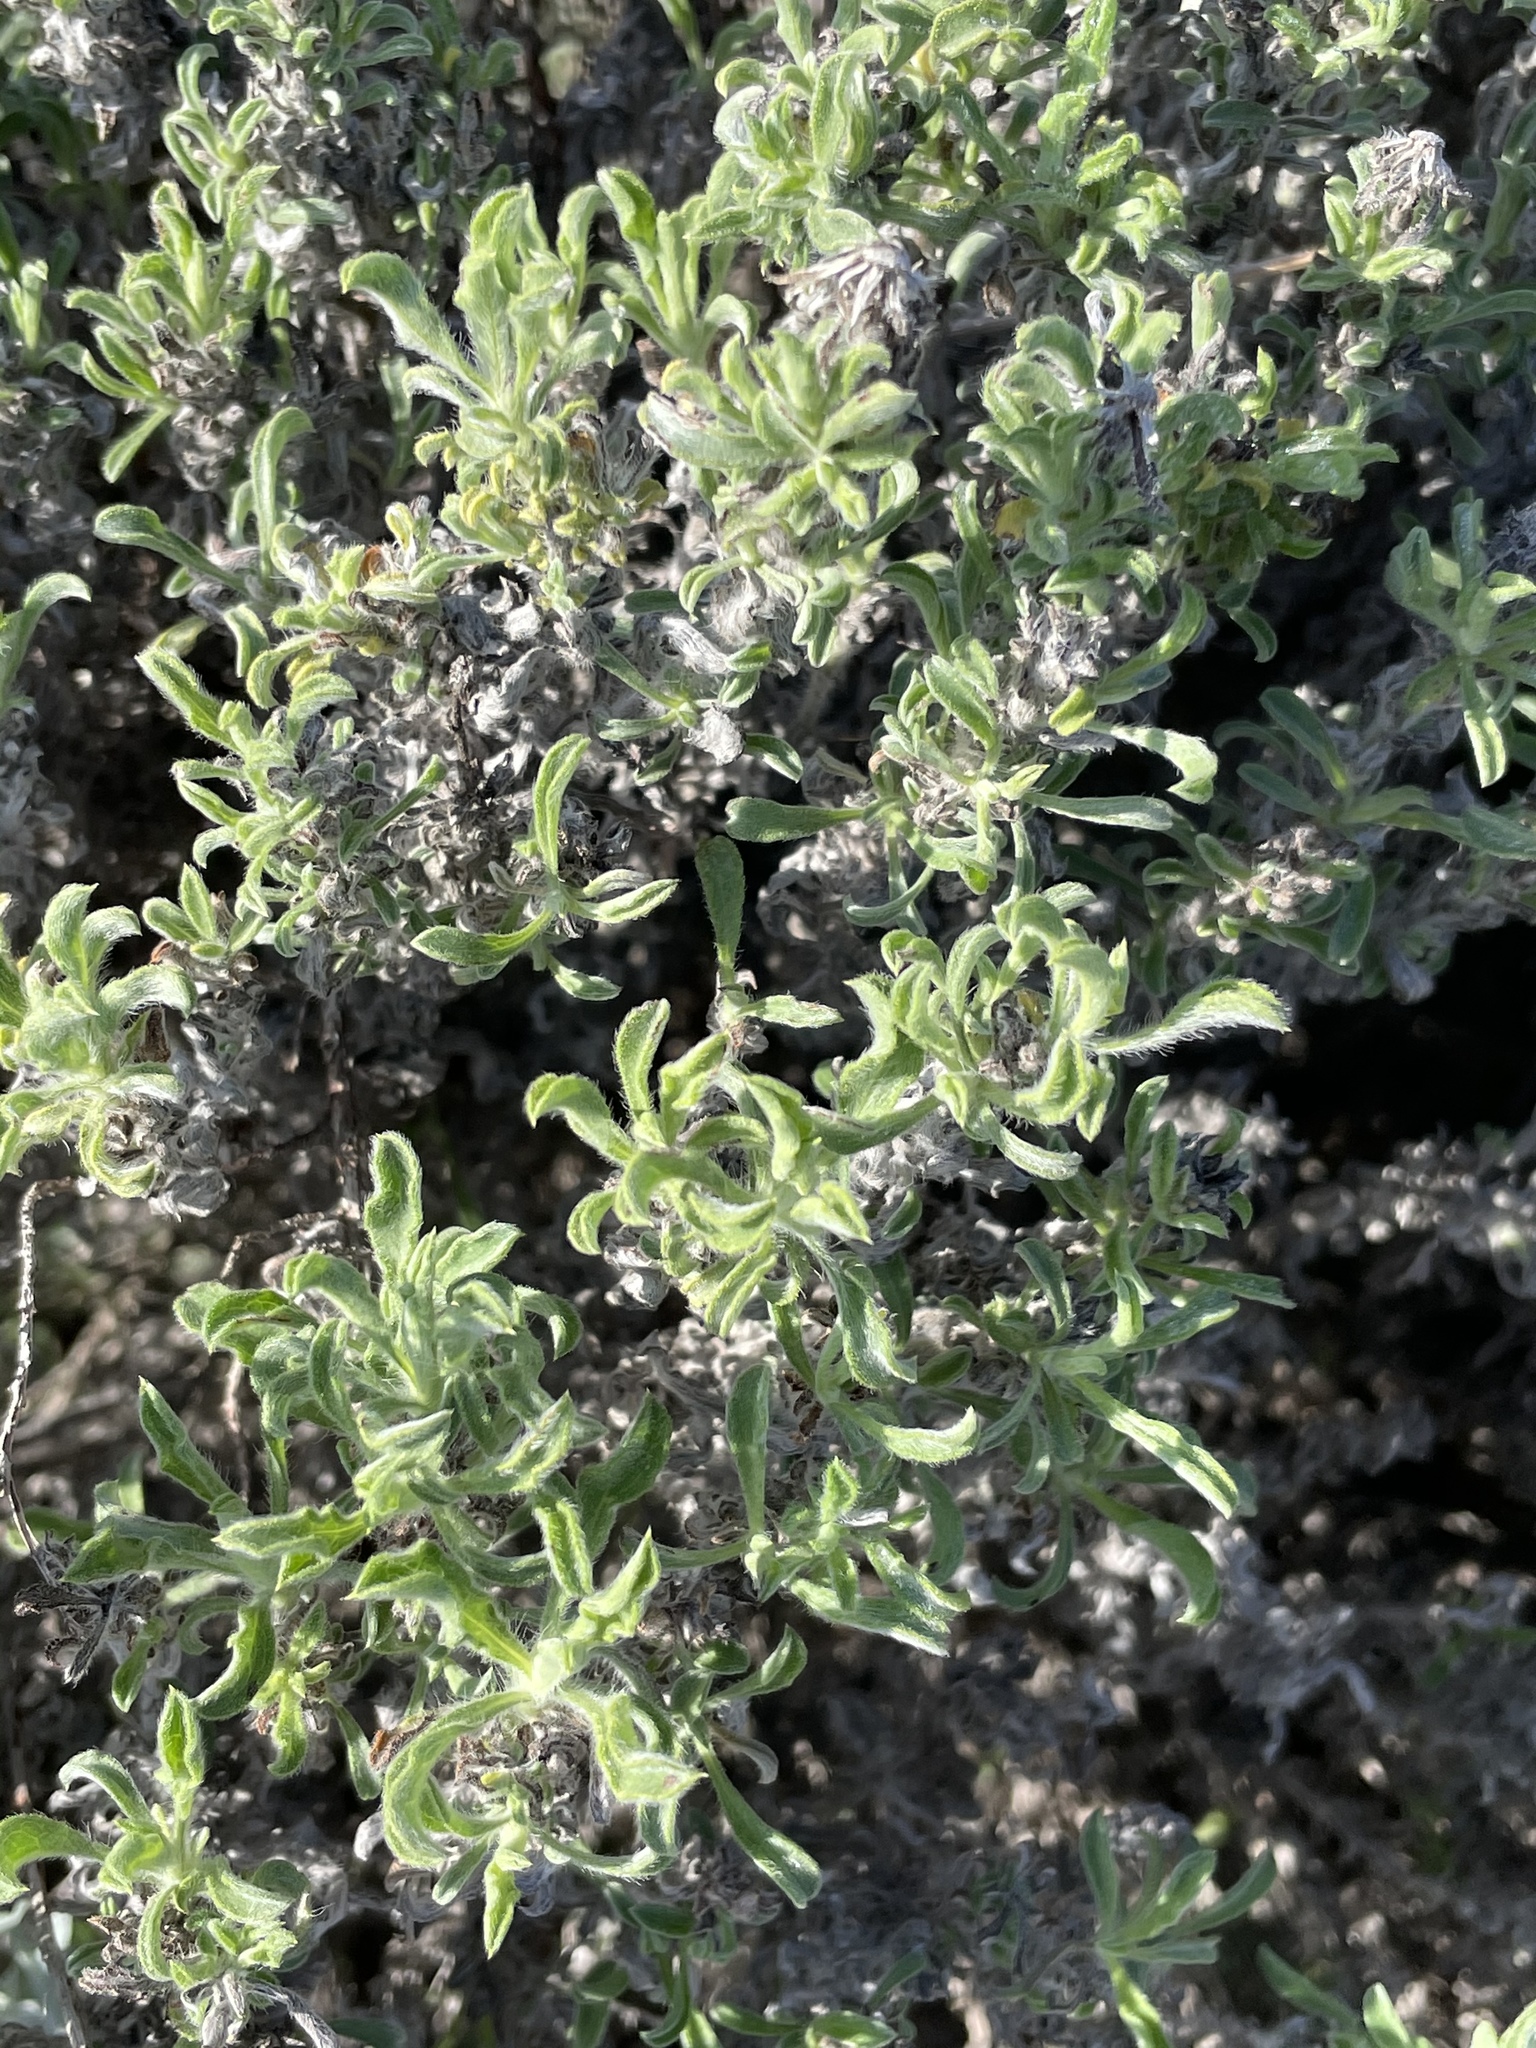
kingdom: Plantae
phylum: Tracheophyta
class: Magnoliopsida
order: Asterales
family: Asteraceae
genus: Heterotheca
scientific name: Heterotheca sessiliflora
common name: Sessile-flower golden-aster
